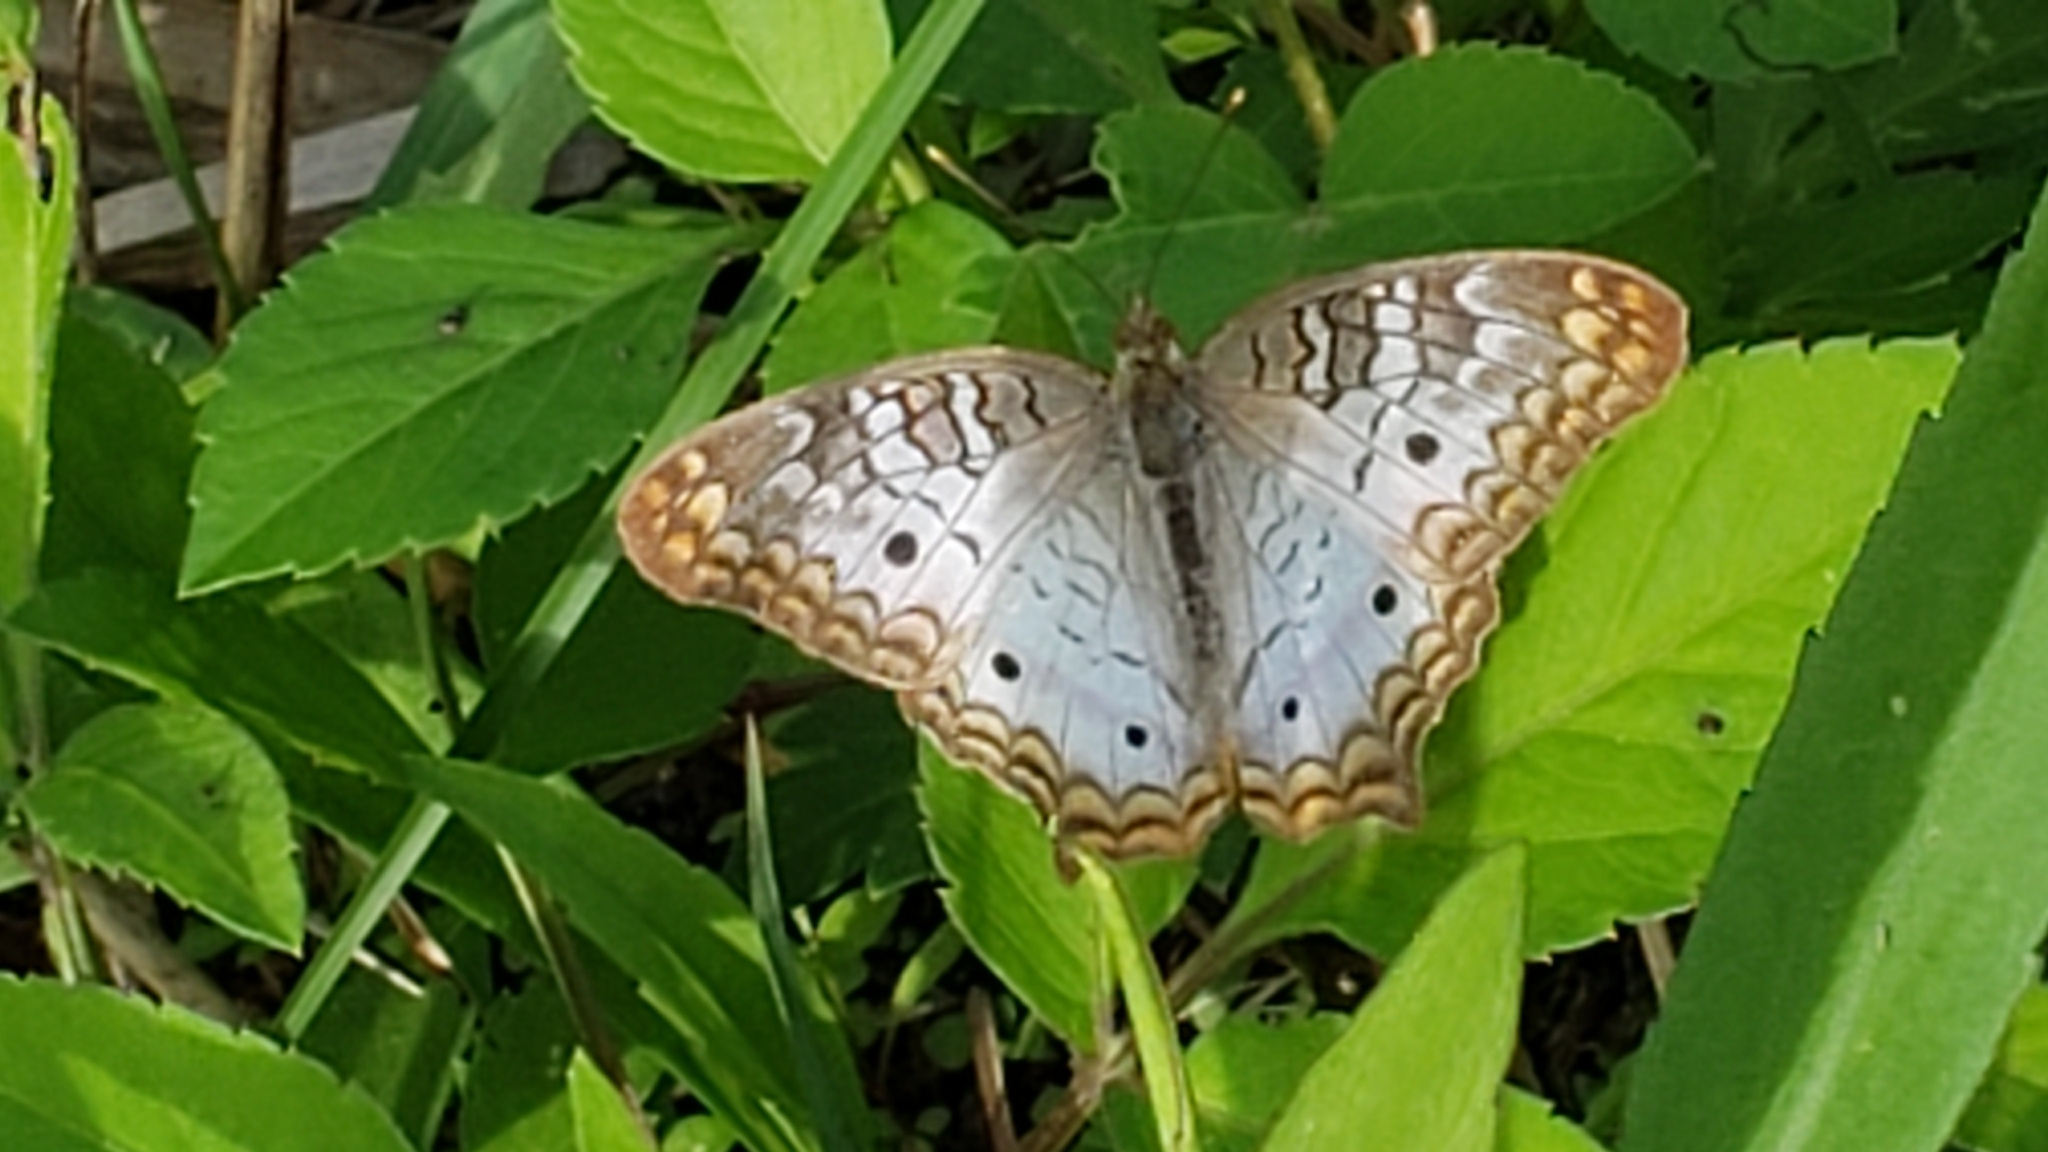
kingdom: Animalia
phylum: Arthropoda
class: Insecta
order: Lepidoptera
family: Nymphalidae
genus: Anartia
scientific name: Anartia jatrophae
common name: White peacock
